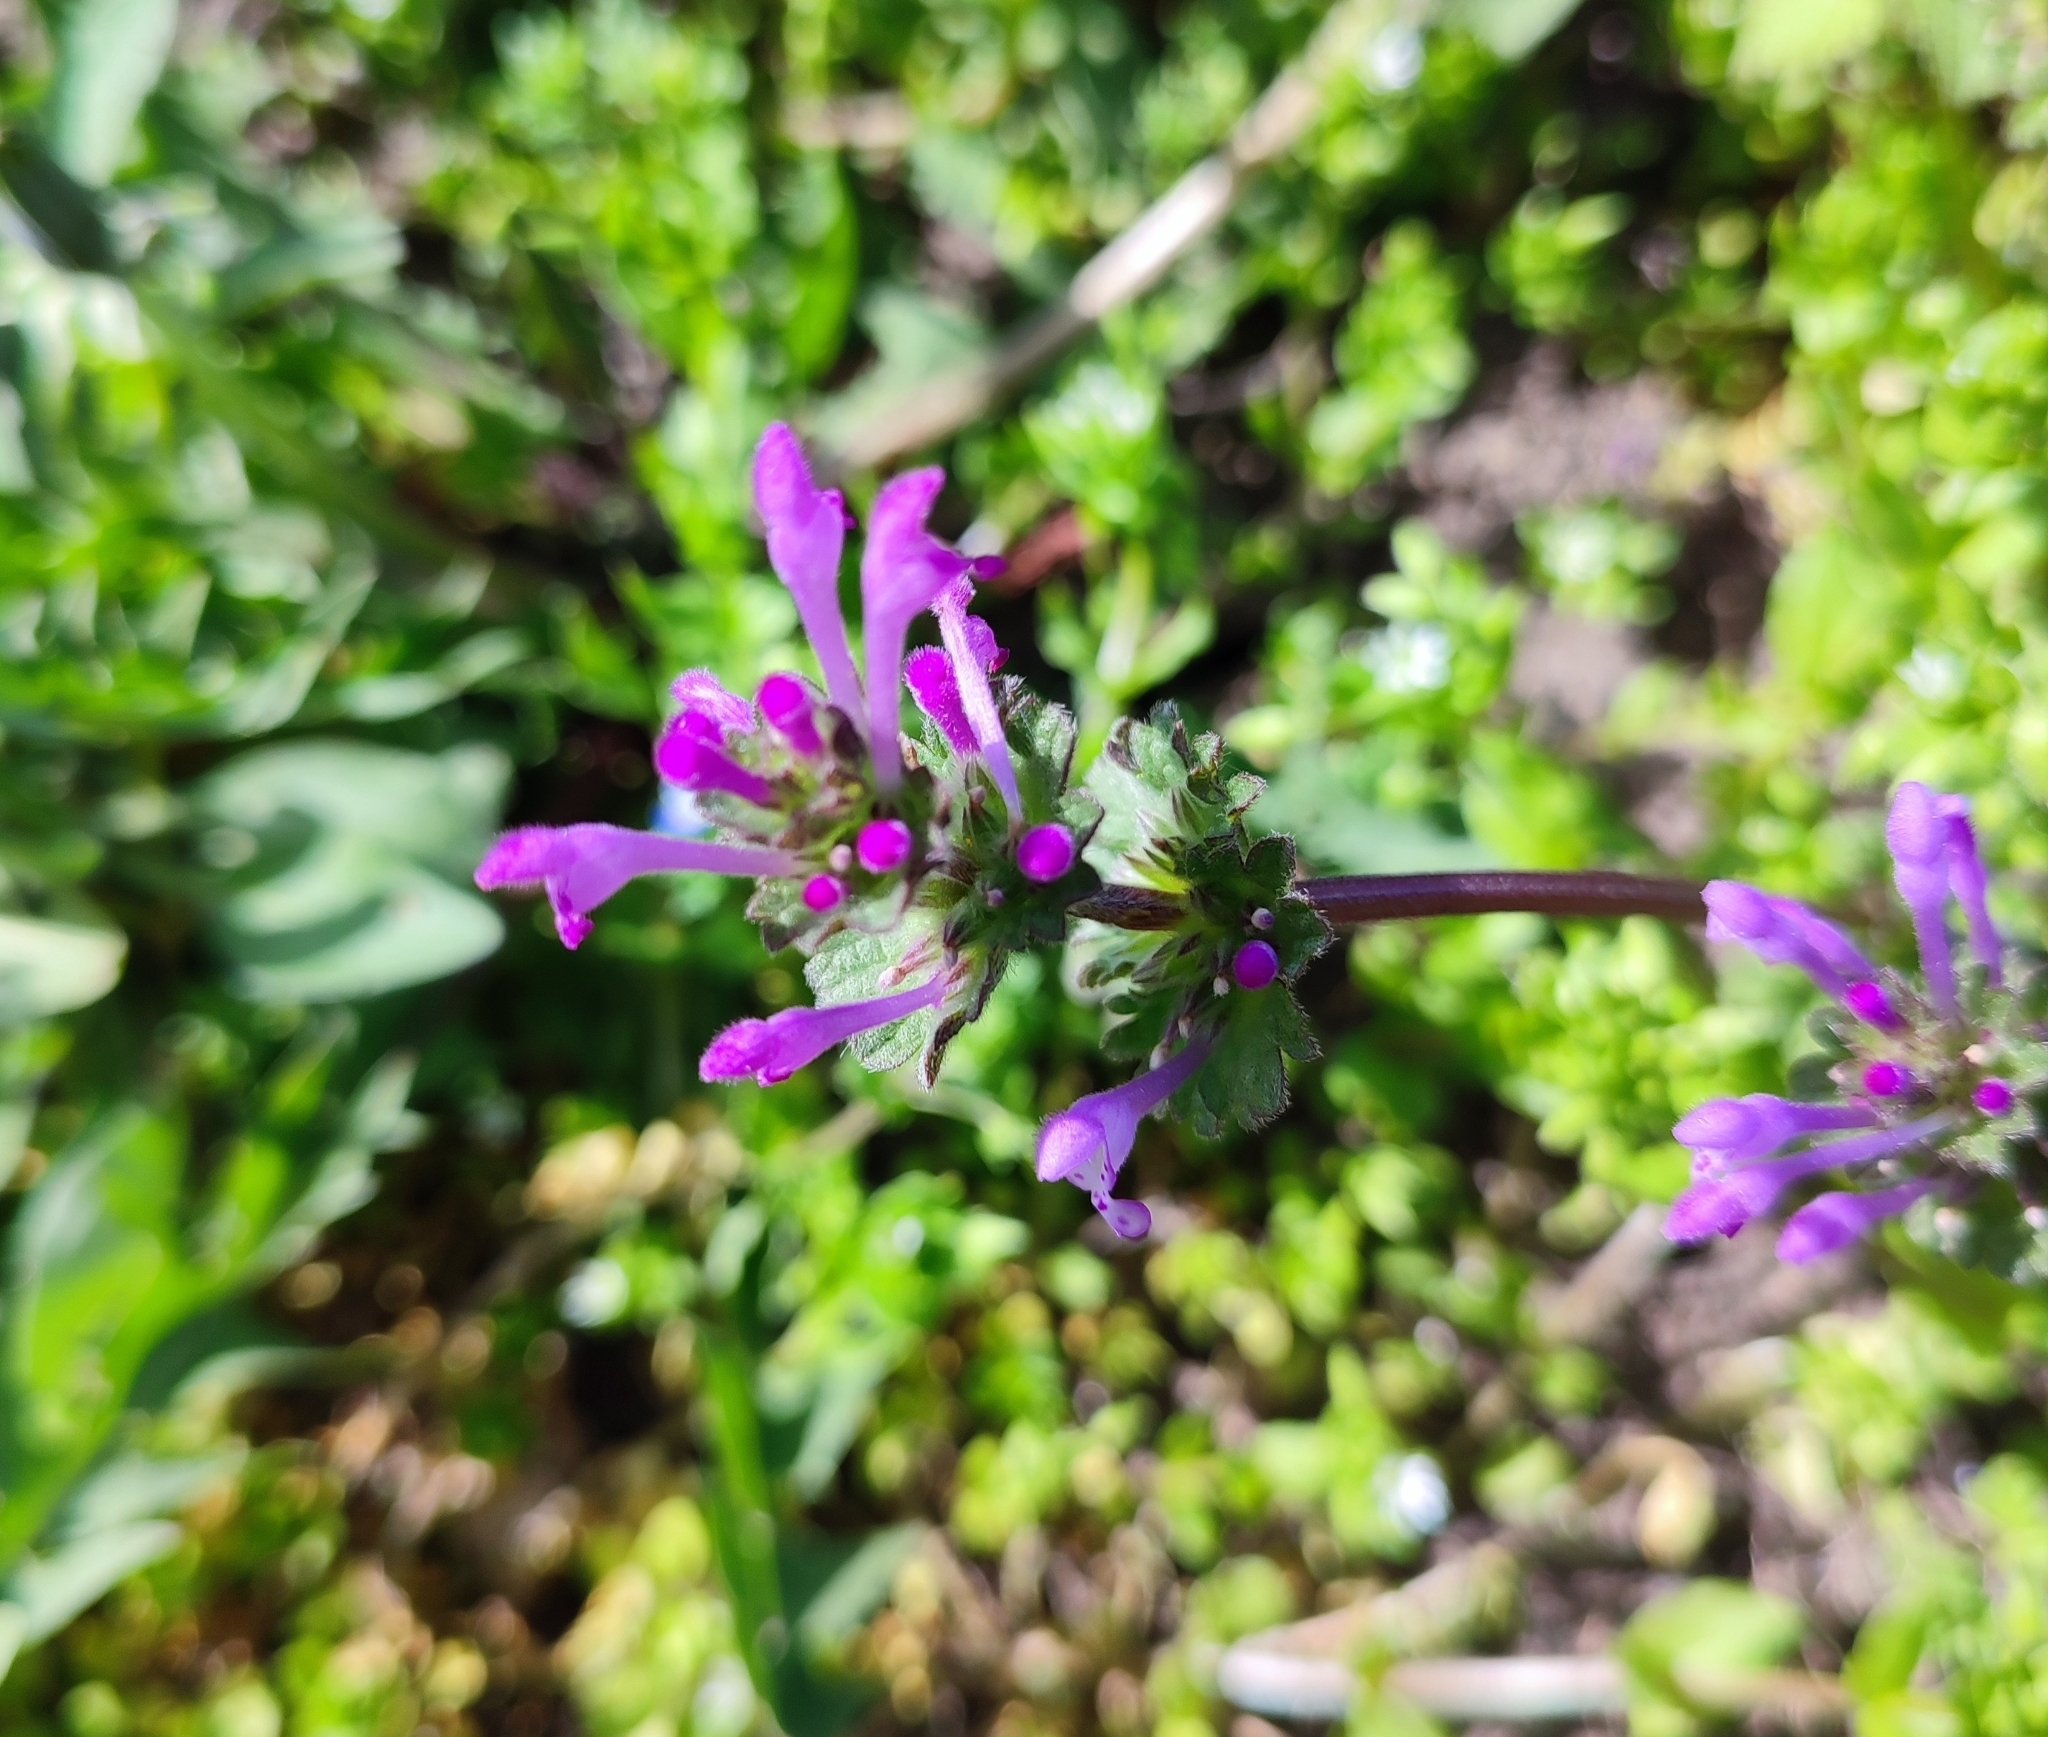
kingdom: Plantae
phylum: Tracheophyta
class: Magnoliopsida
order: Lamiales
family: Lamiaceae
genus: Lamium
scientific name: Lamium amplexicaule
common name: Henbit dead-nettle
